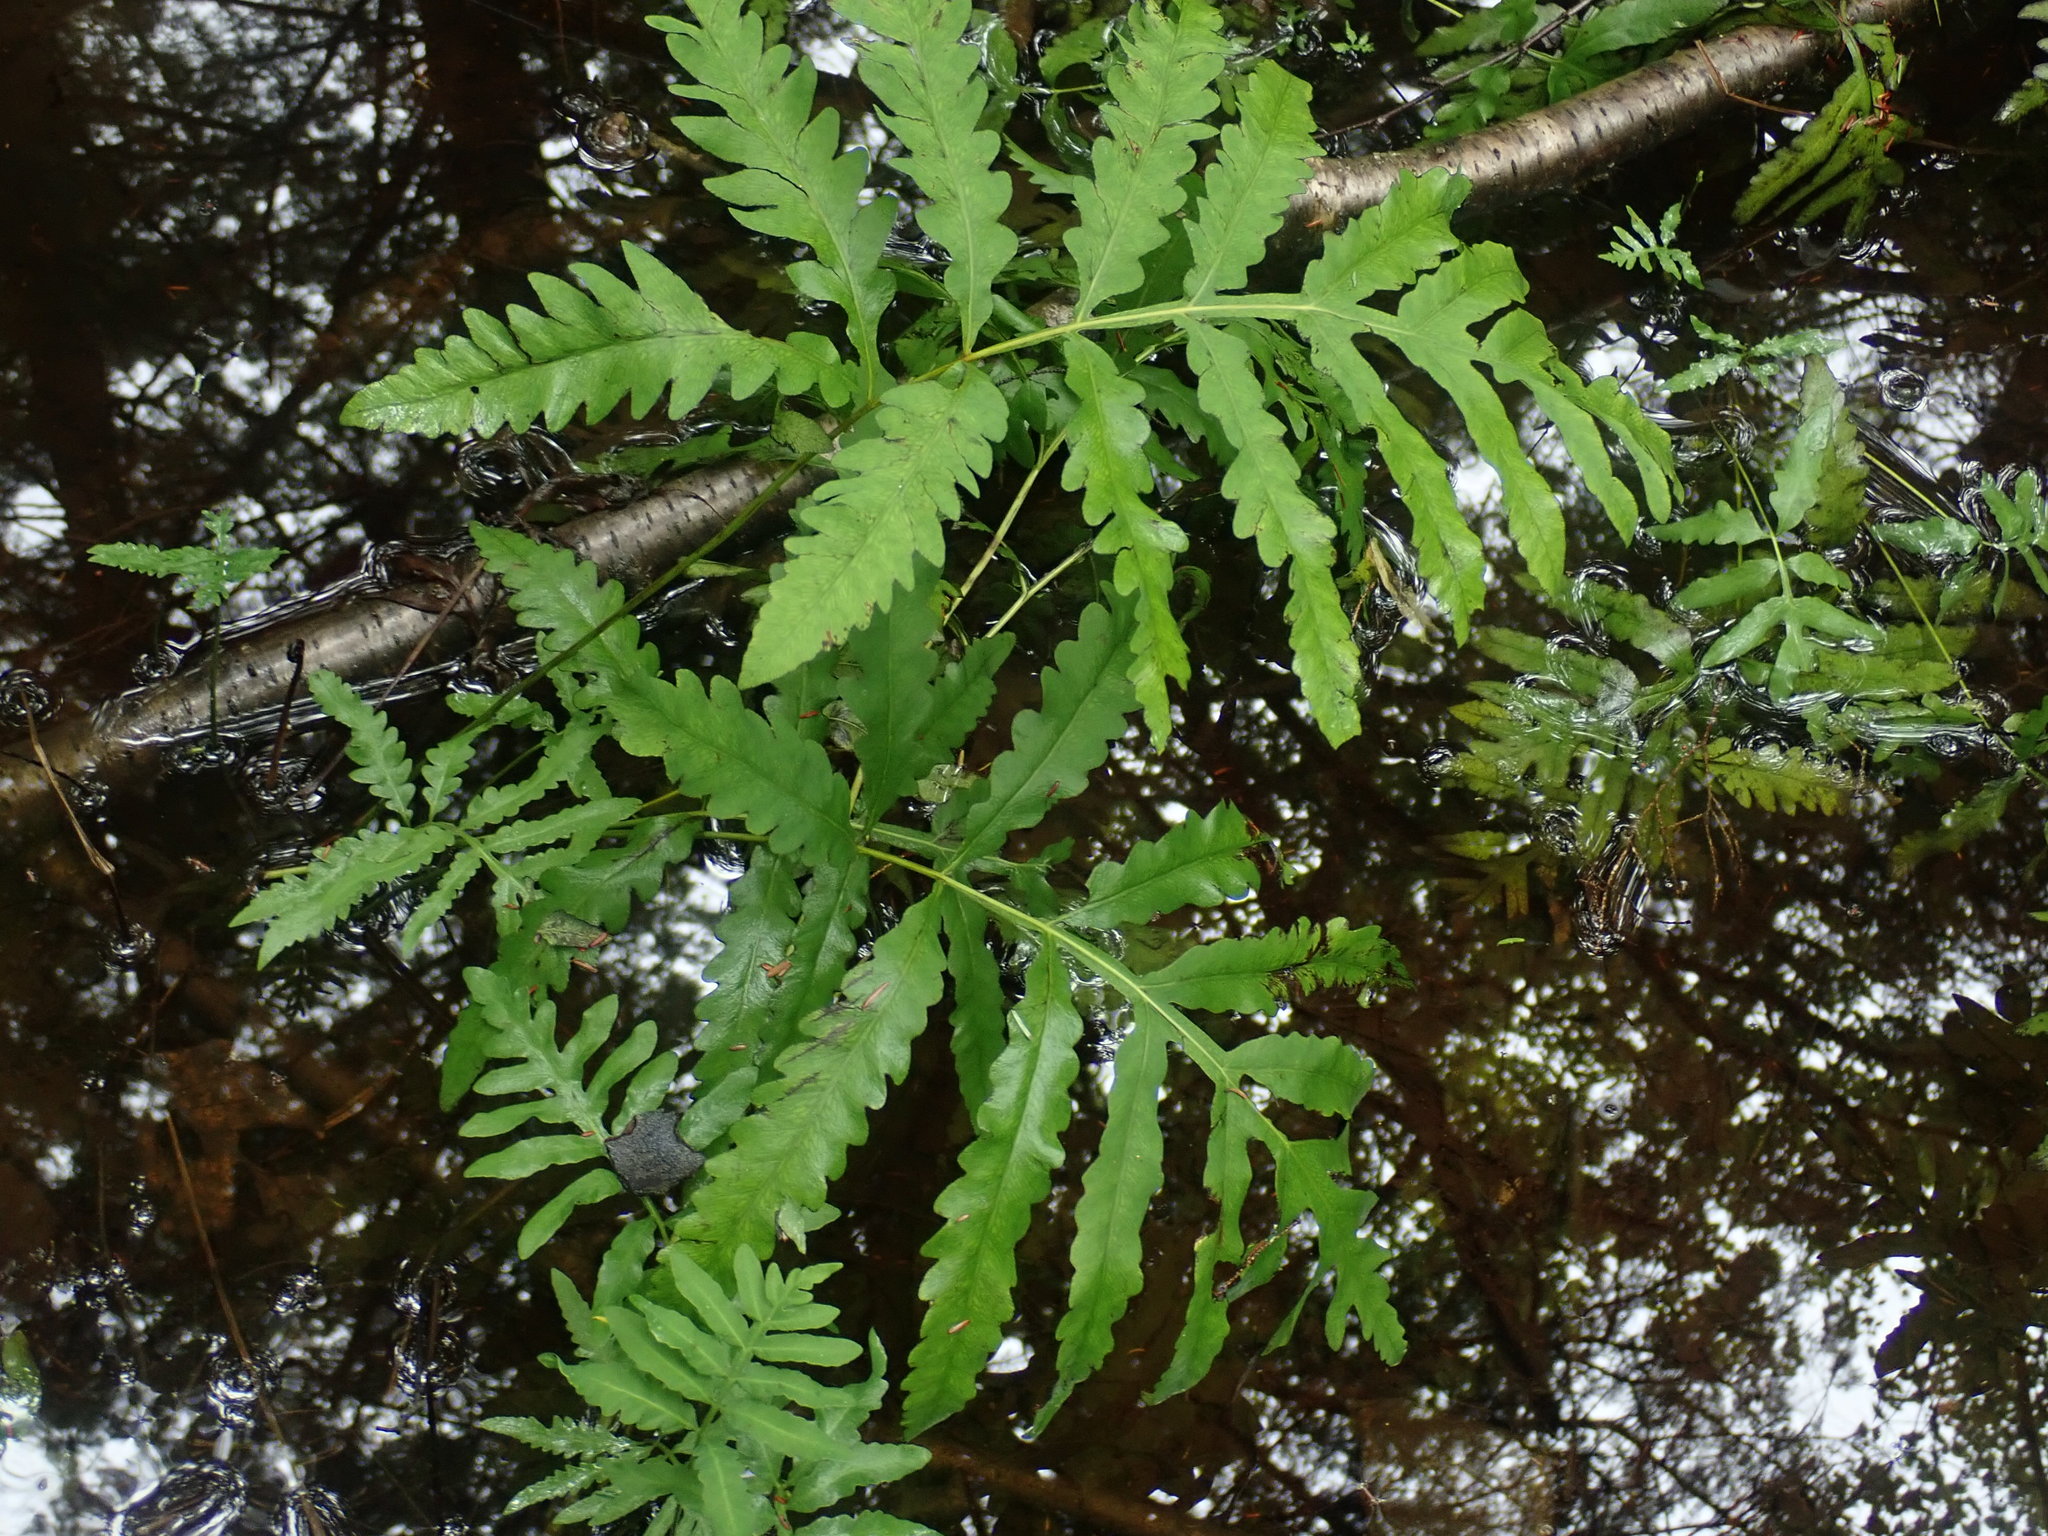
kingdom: Plantae
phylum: Tracheophyta
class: Polypodiopsida
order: Polypodiales
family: Onocleaceae
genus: Onoclea
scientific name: Onoclea sensibilis
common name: Sensitive fern
